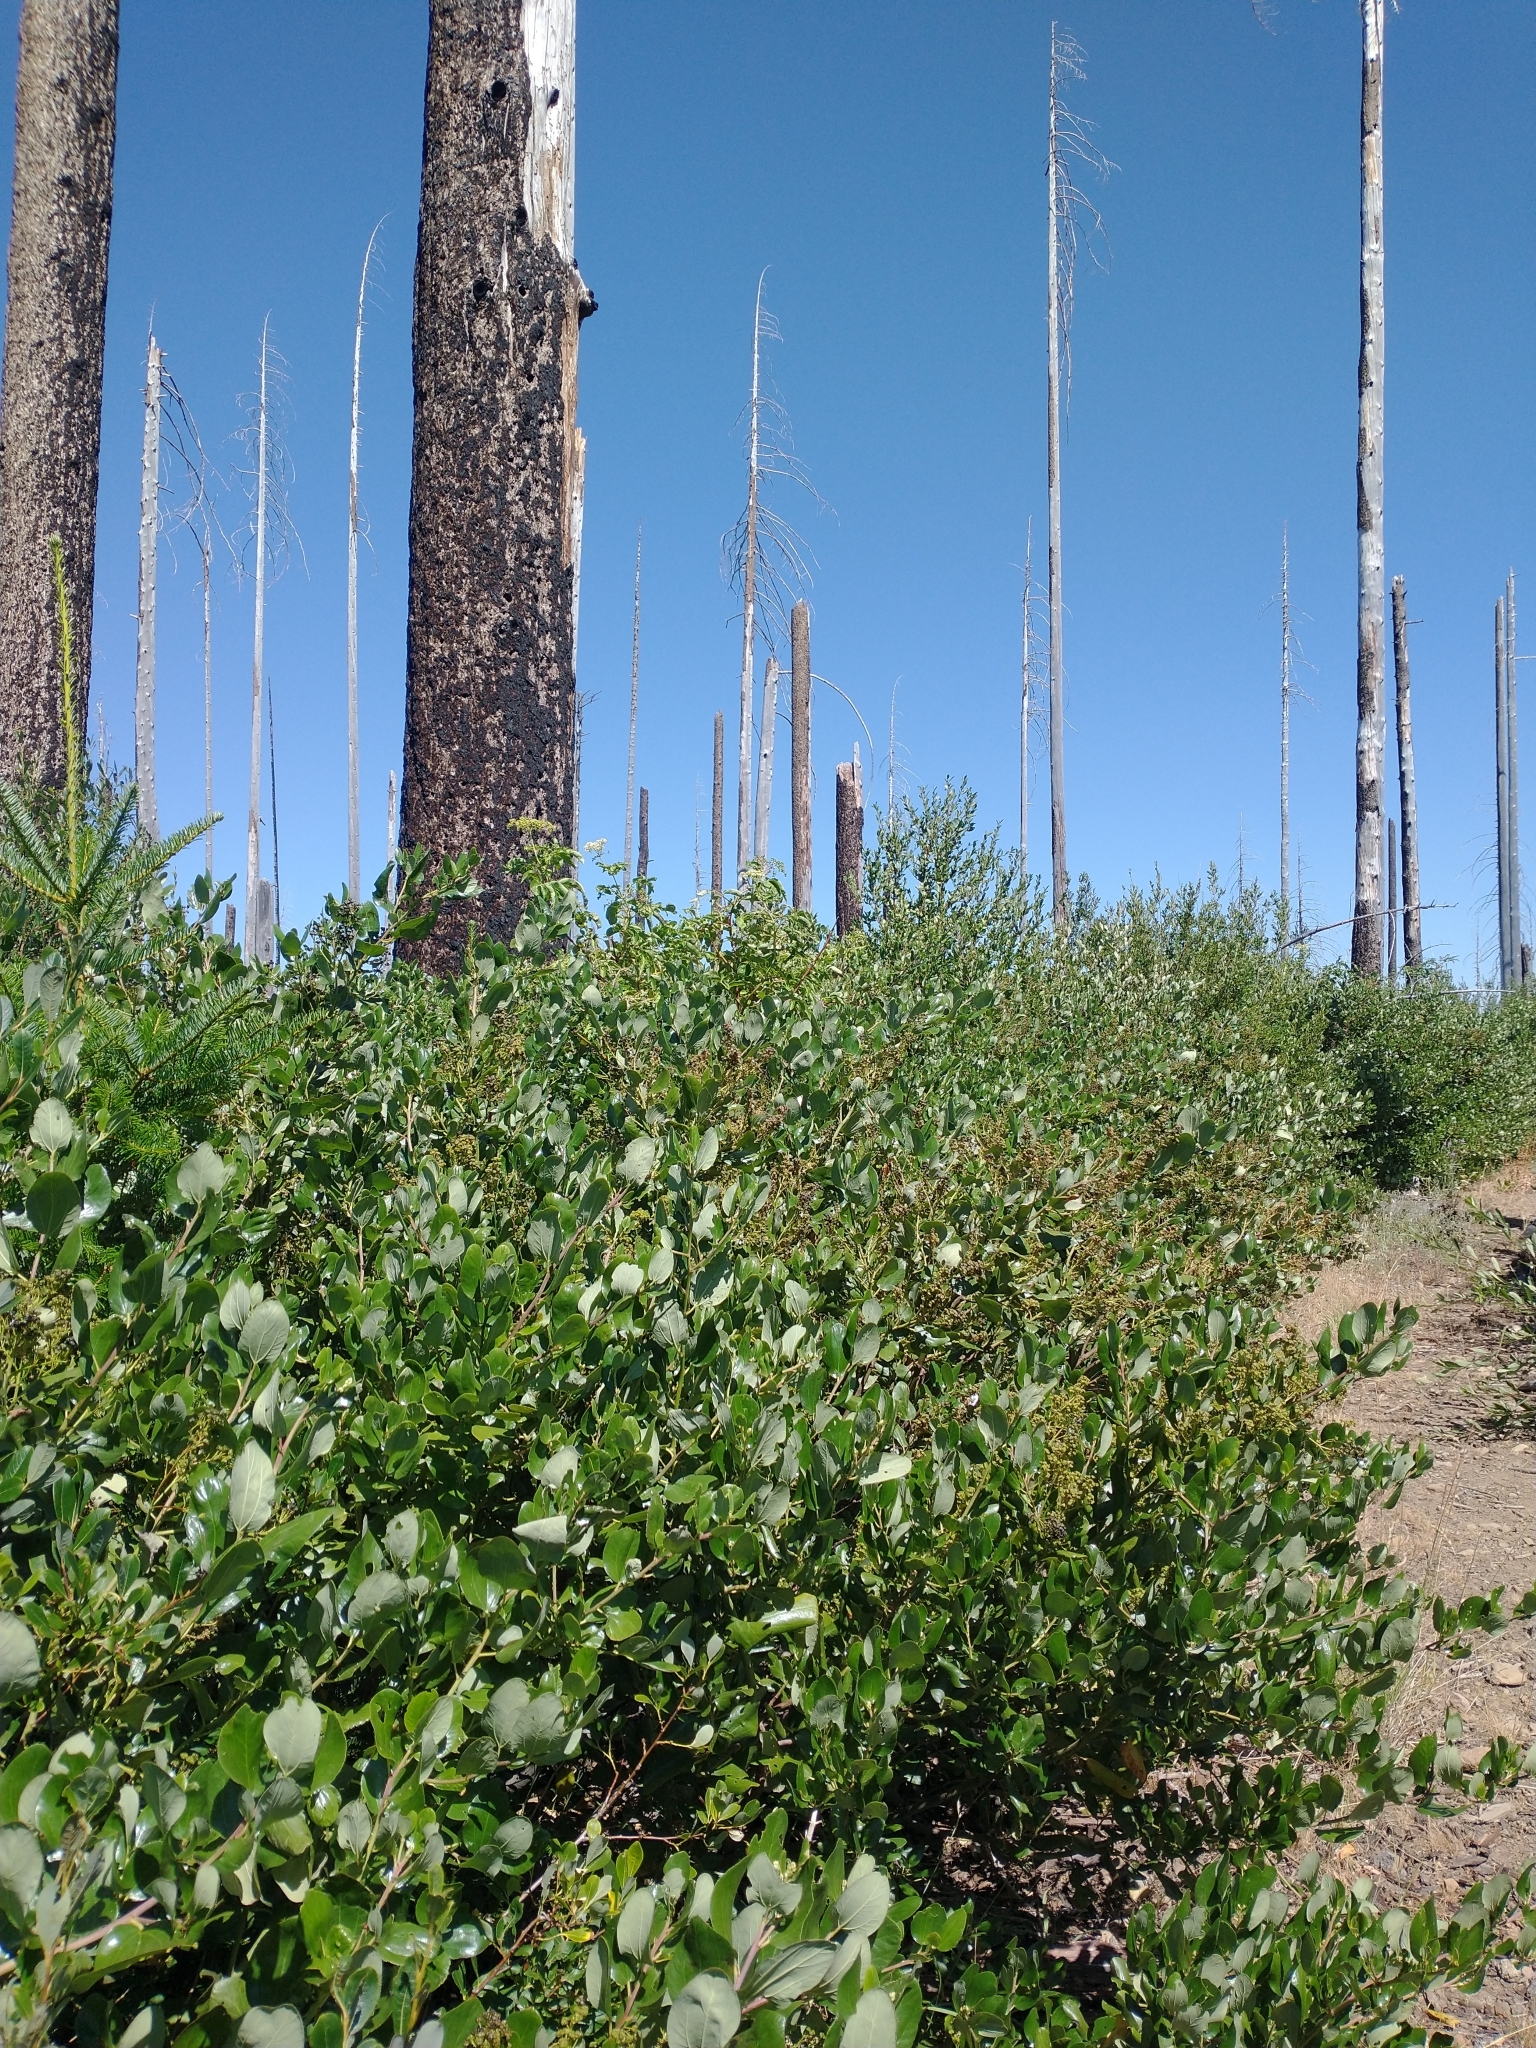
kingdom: Plantae
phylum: Tracheophyta
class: Magnoliopsida
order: Rosales
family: Rhamnaceae
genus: Ceanothus
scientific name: Ceanothus velutinus
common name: Snowbrush
